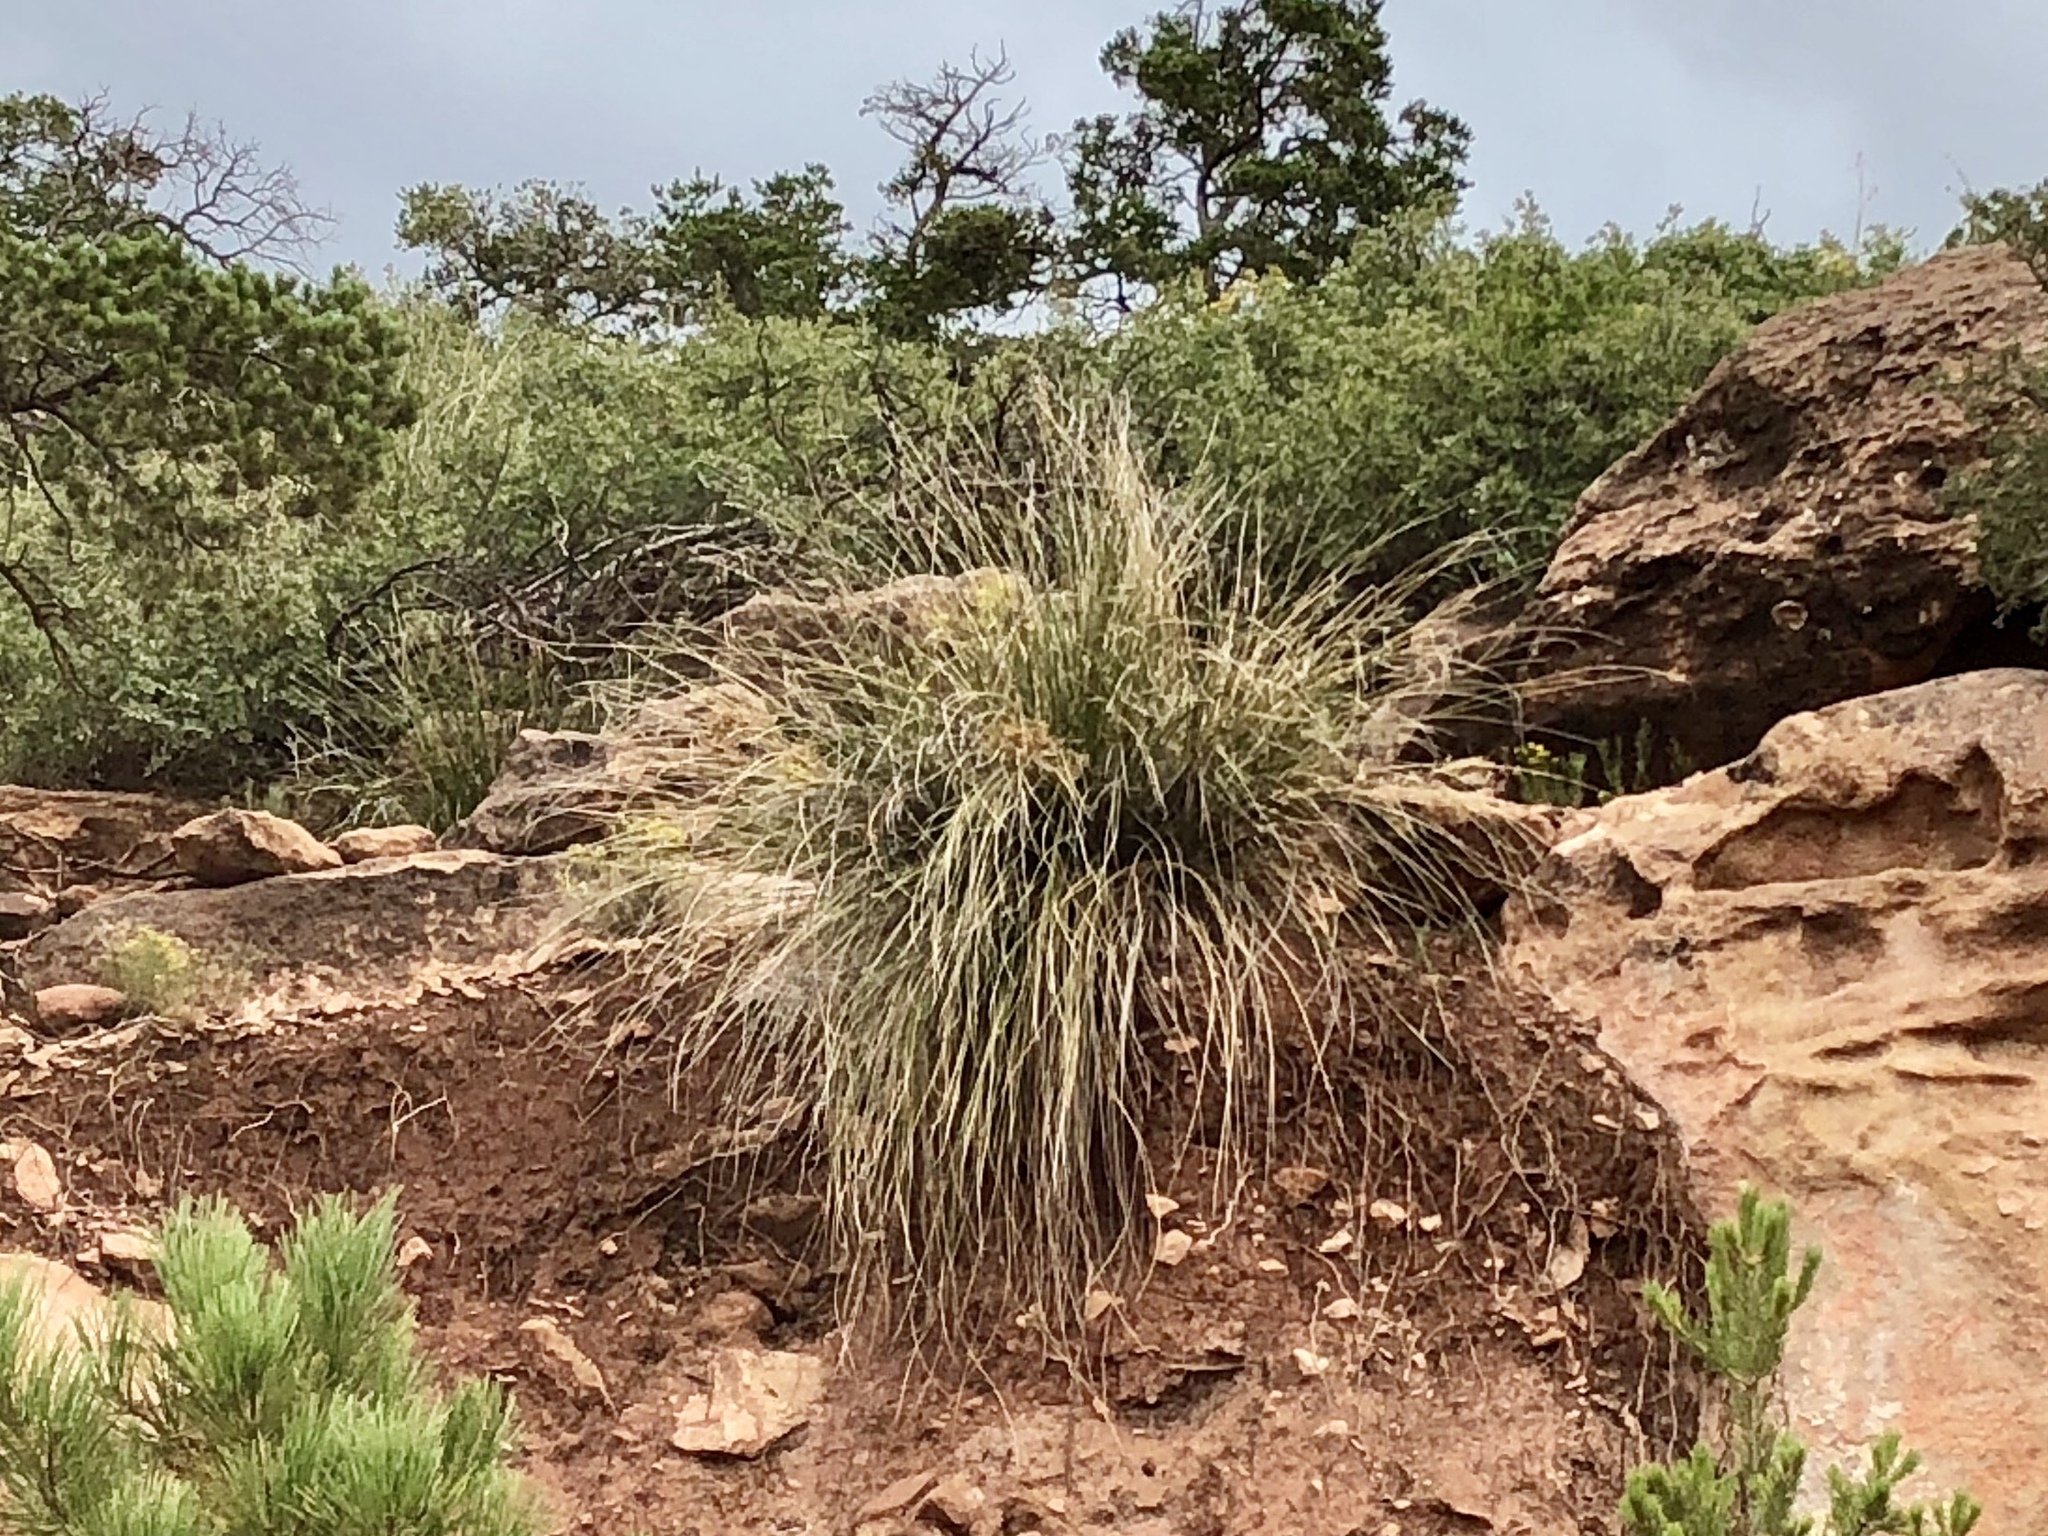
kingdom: Plantae
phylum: Tracheophyta
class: Liliopsida
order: Asparagales
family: Asparagaceae
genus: Nolina
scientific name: Nolina microcarpa
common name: Bear-grass
